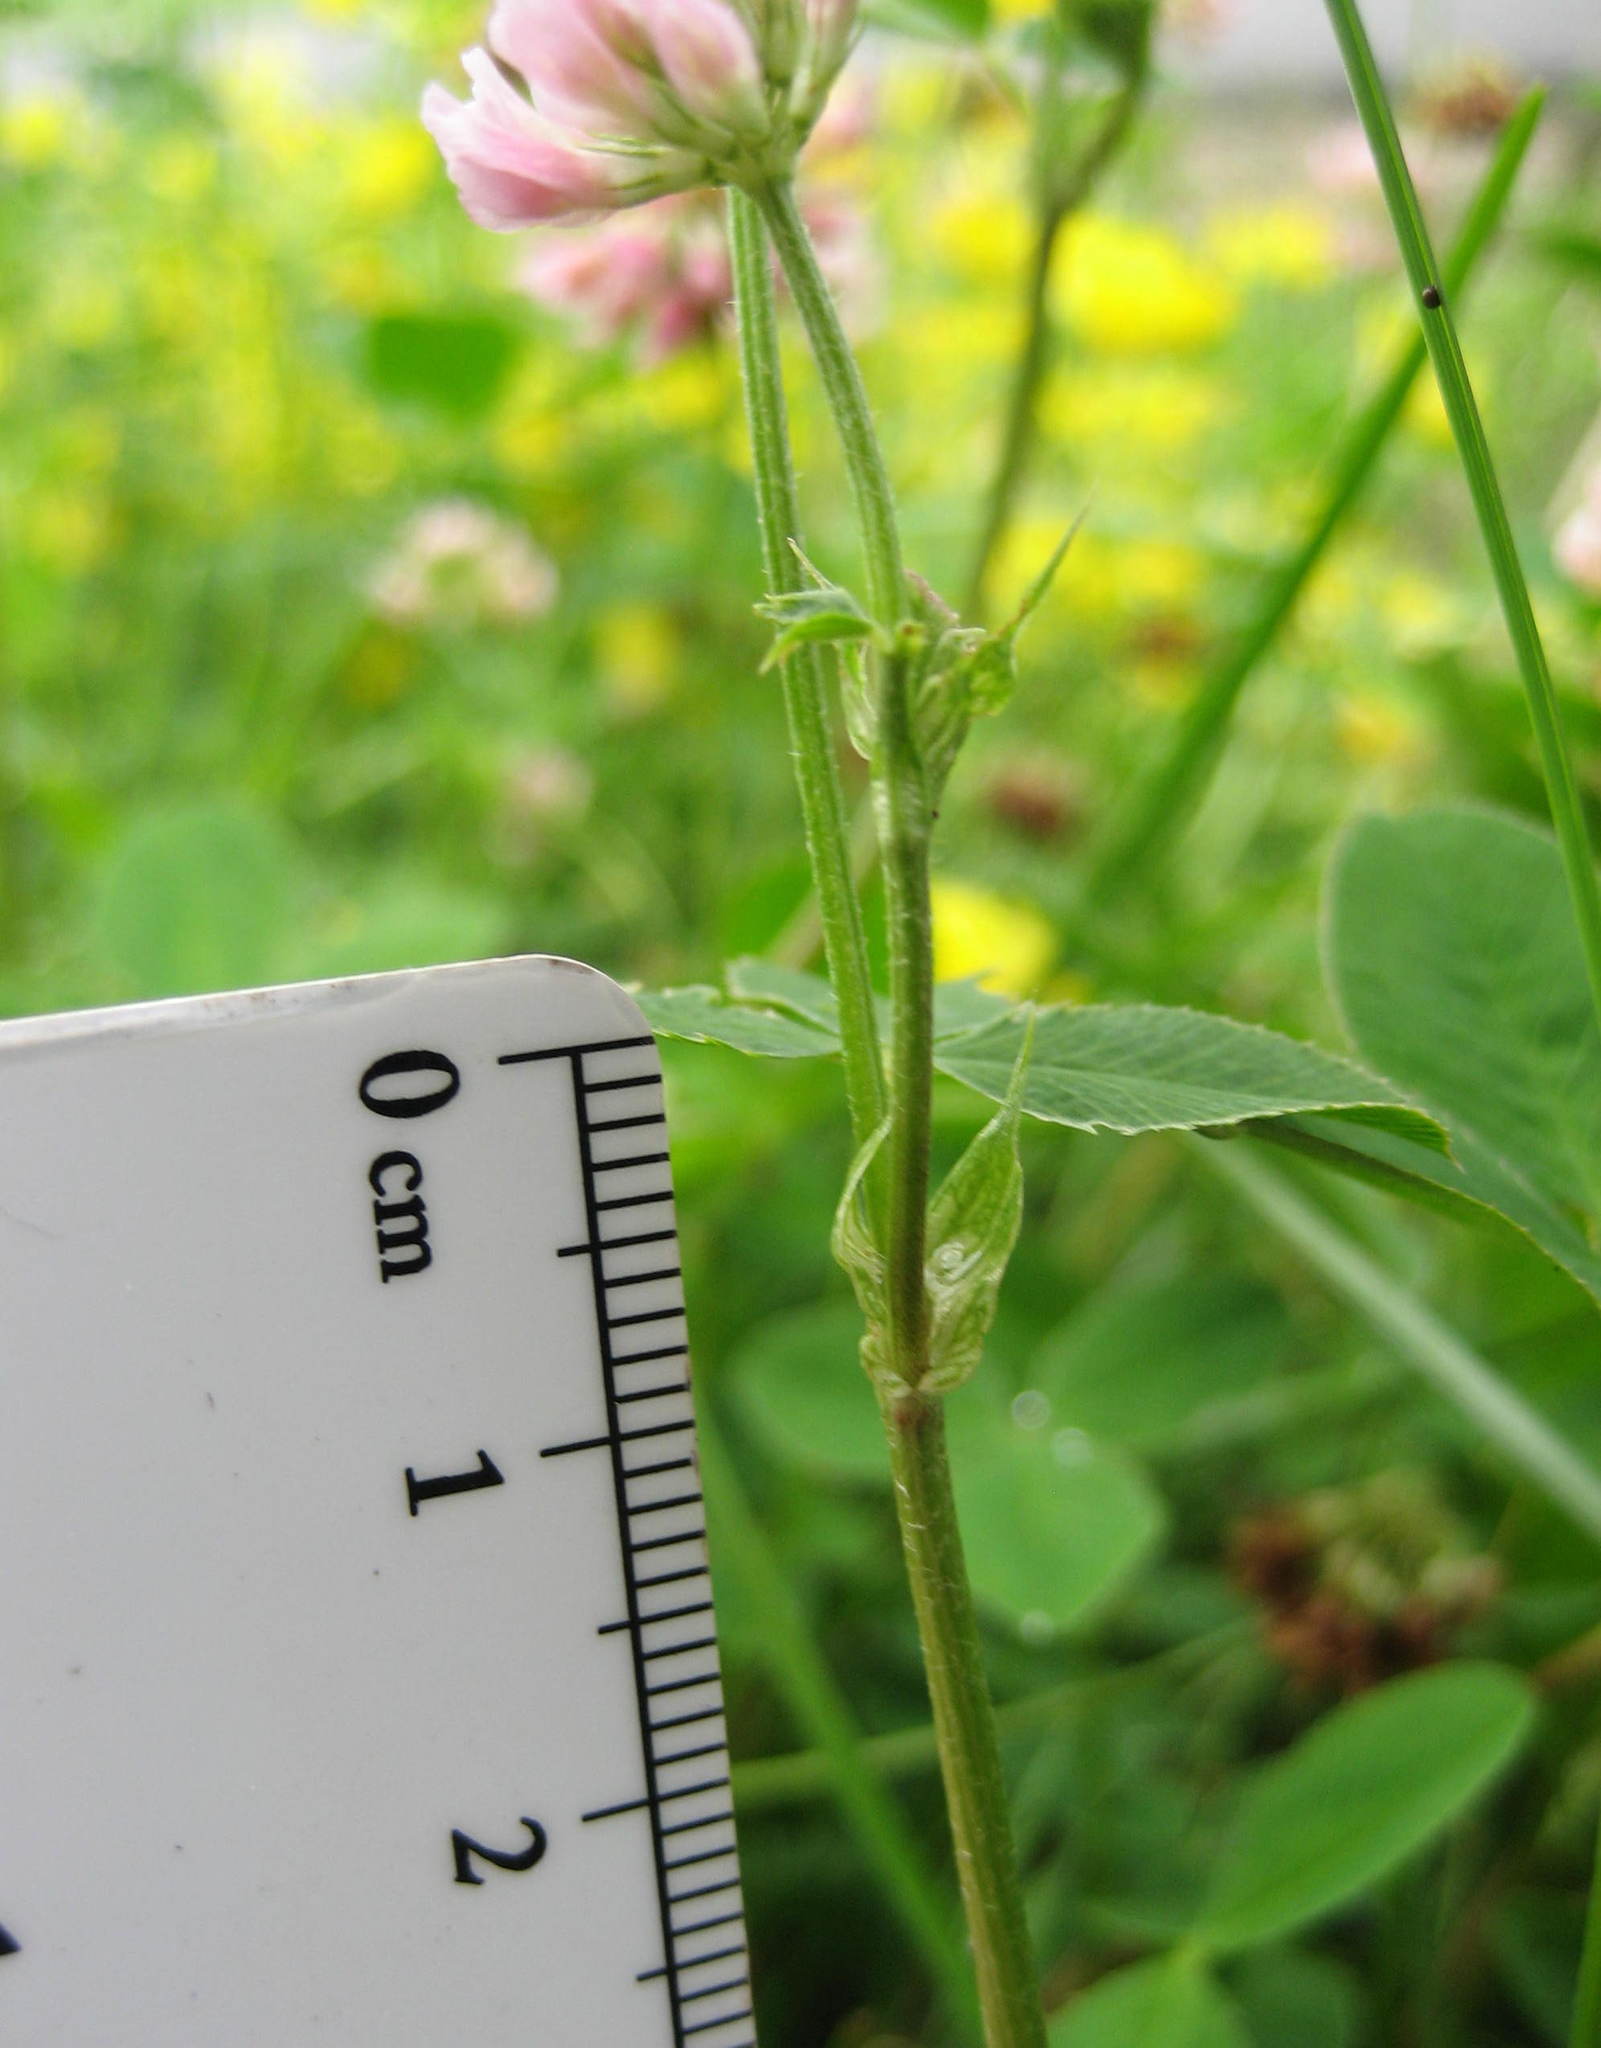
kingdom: Plantae
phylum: Tracheophyta
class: Magnoliopsida
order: Fabales
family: Fabaceae
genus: Trifolium
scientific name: Trifolium hybridum
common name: Alsike clover
